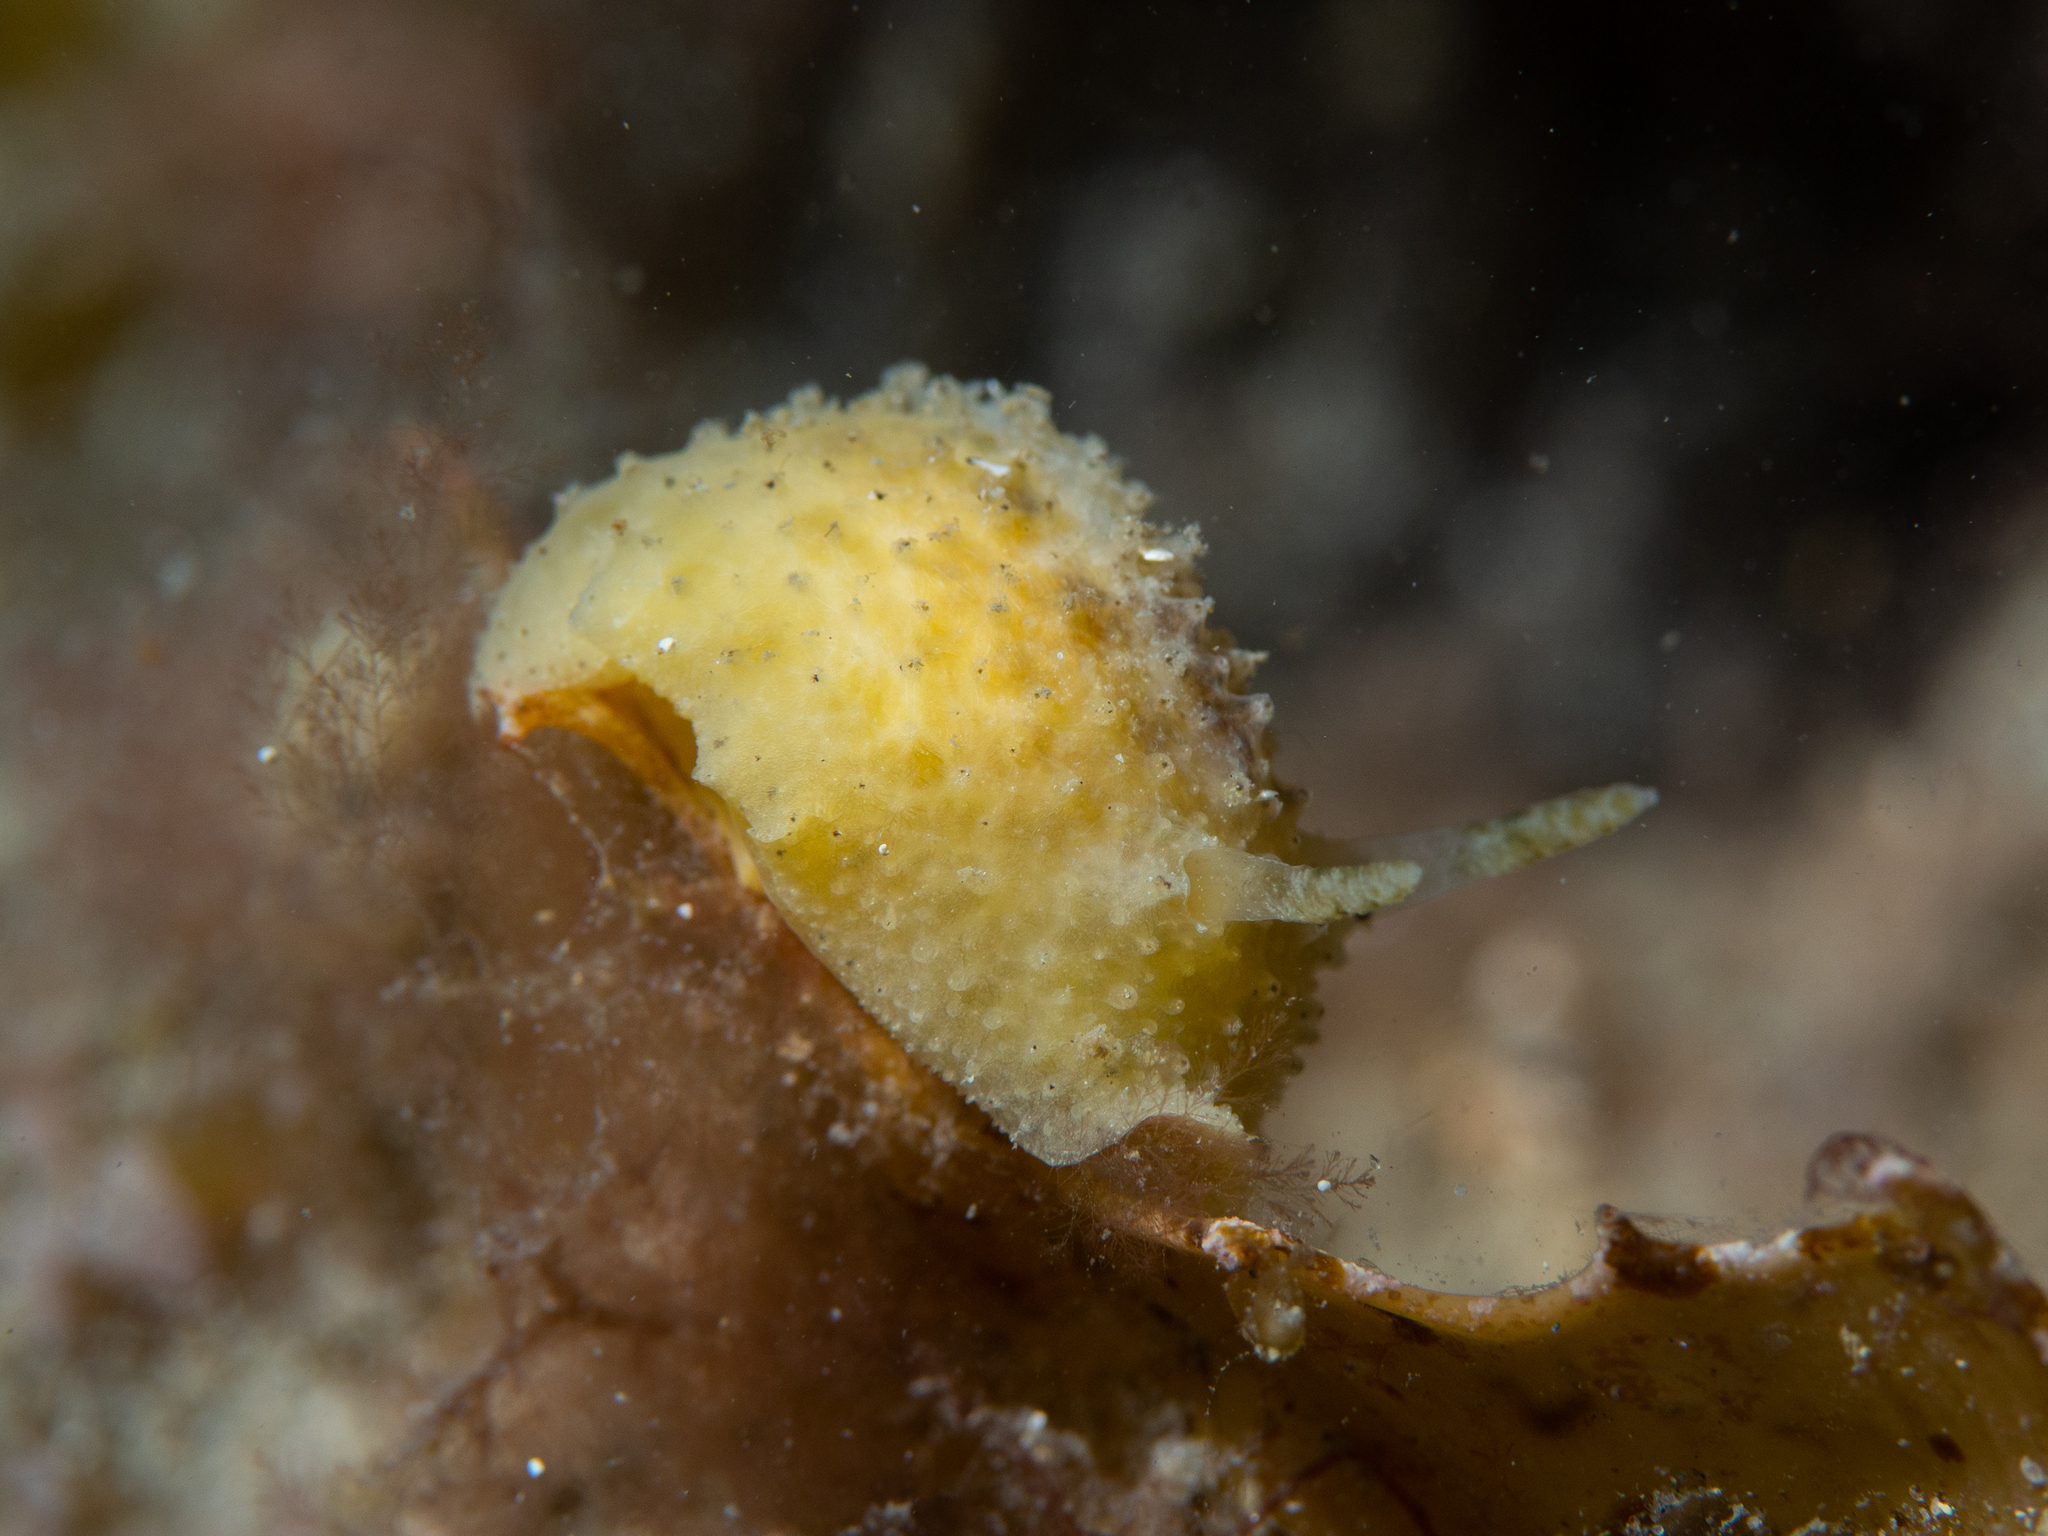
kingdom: Animalia
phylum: Mollusca
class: Gastropoda
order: Nudibranchia
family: Dorididae
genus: Doris
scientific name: Doris cameroni
